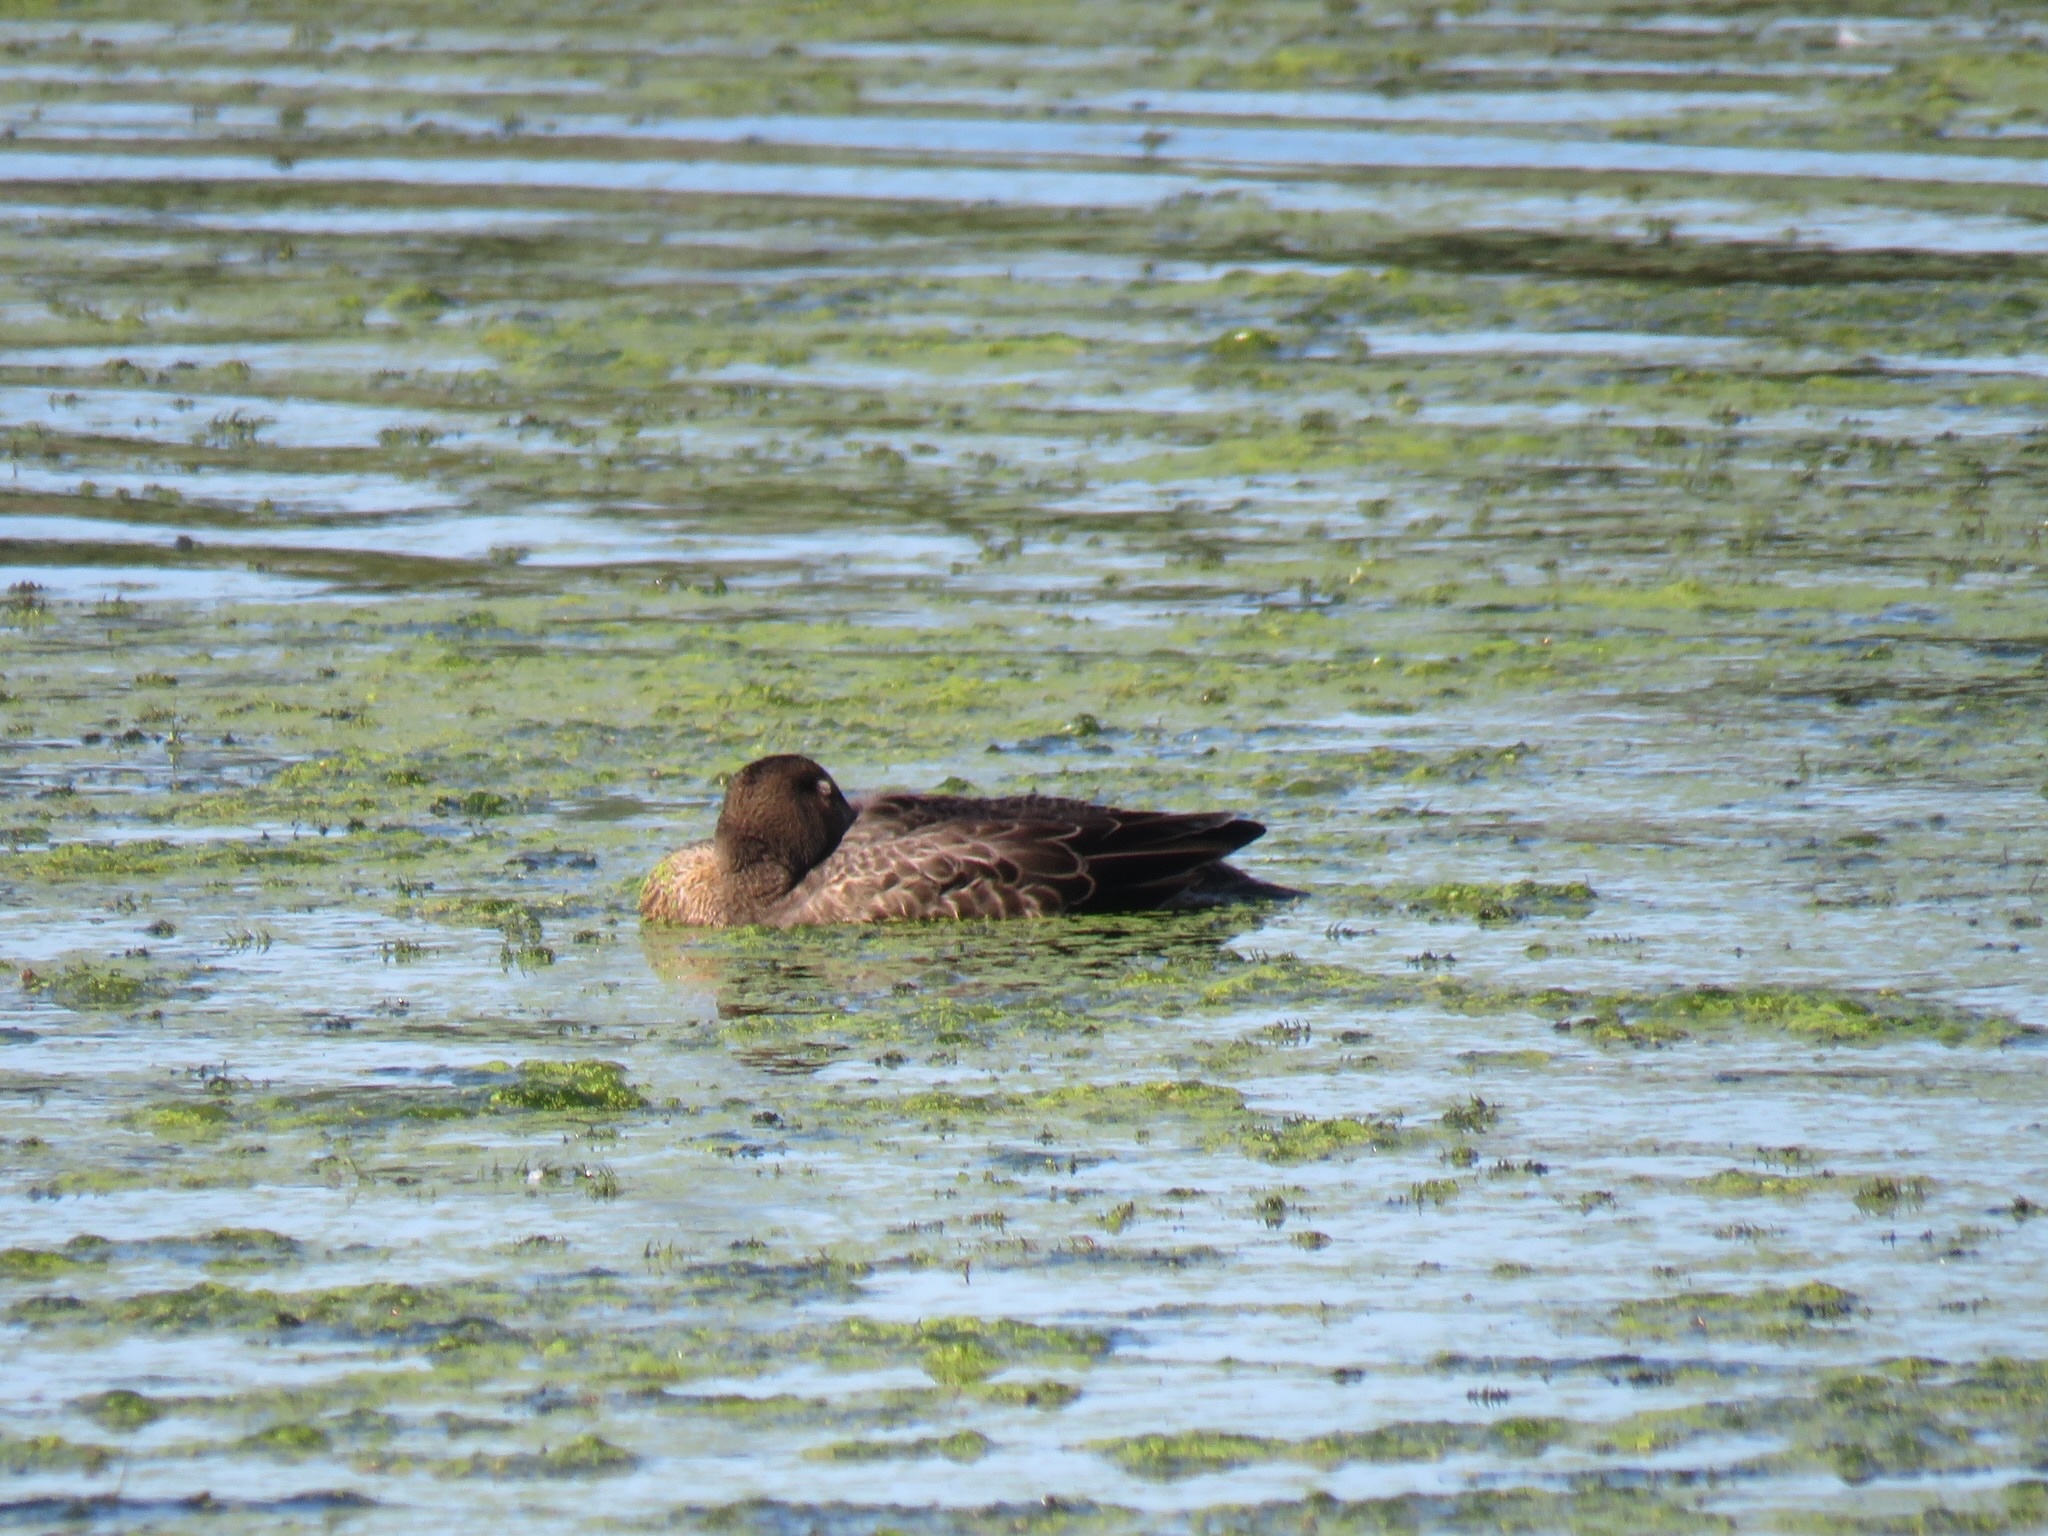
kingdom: Animalia
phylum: Chordata
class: Aves
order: Anseriformes
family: Anatidae
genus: Spatula
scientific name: Spatula discors
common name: Blue-winged teal
